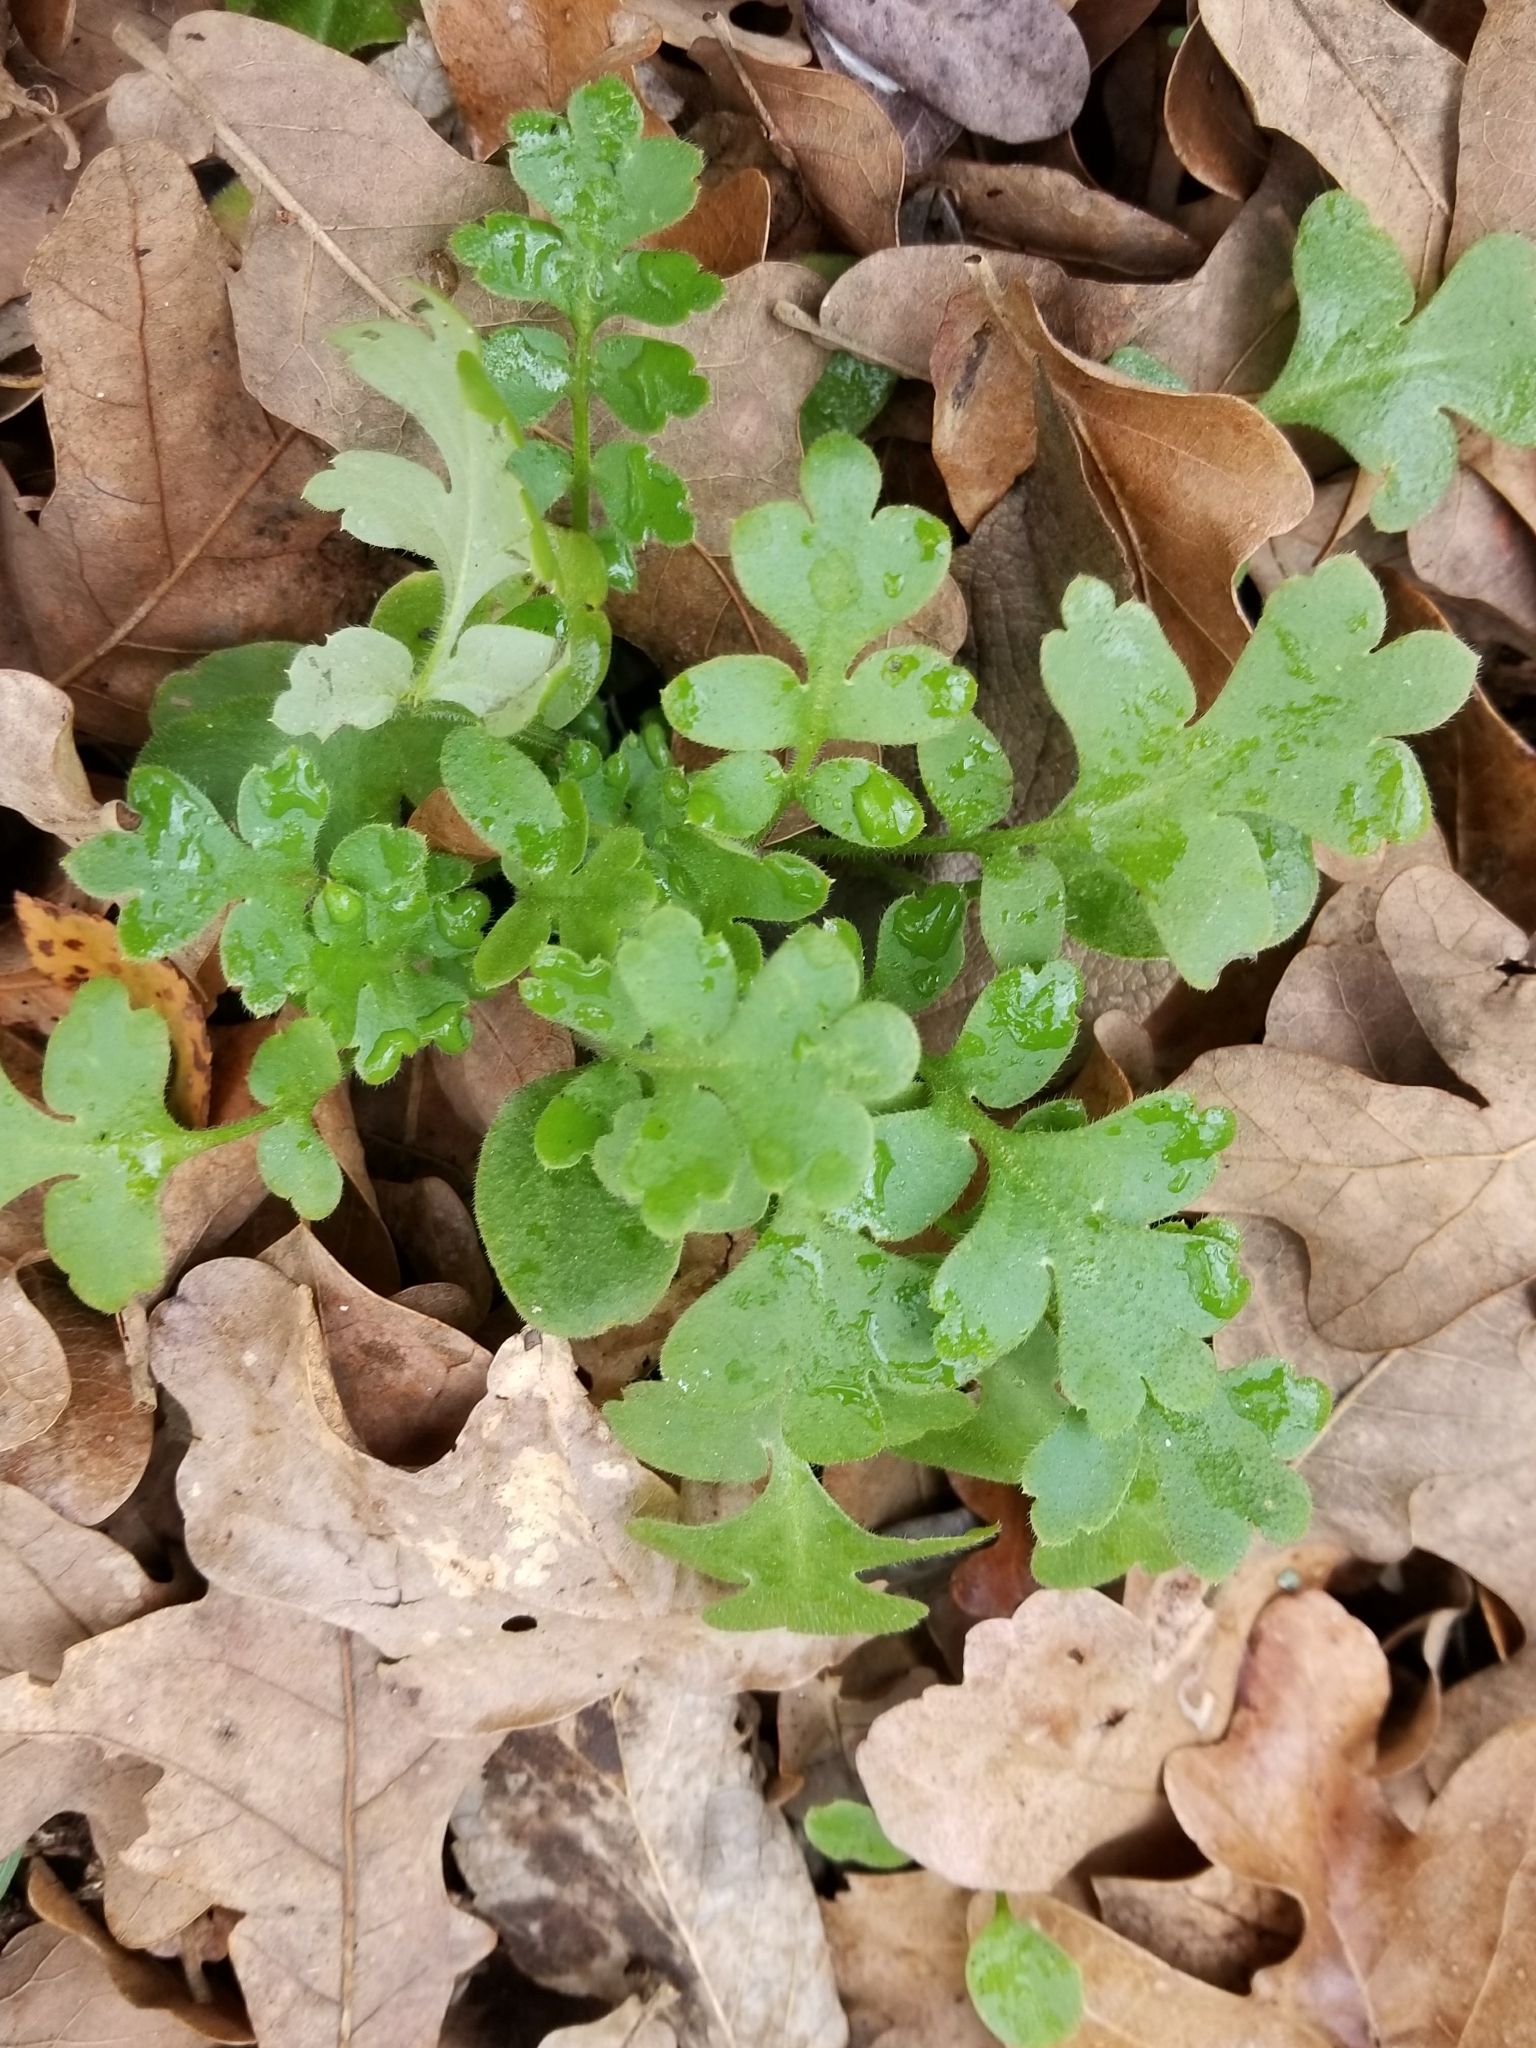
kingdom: Plantae
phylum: Tracheophyta
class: Magnoliopsida
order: Boraginales
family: Hydrophyllaceae
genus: Nemophila
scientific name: Nemophila phacelioides
